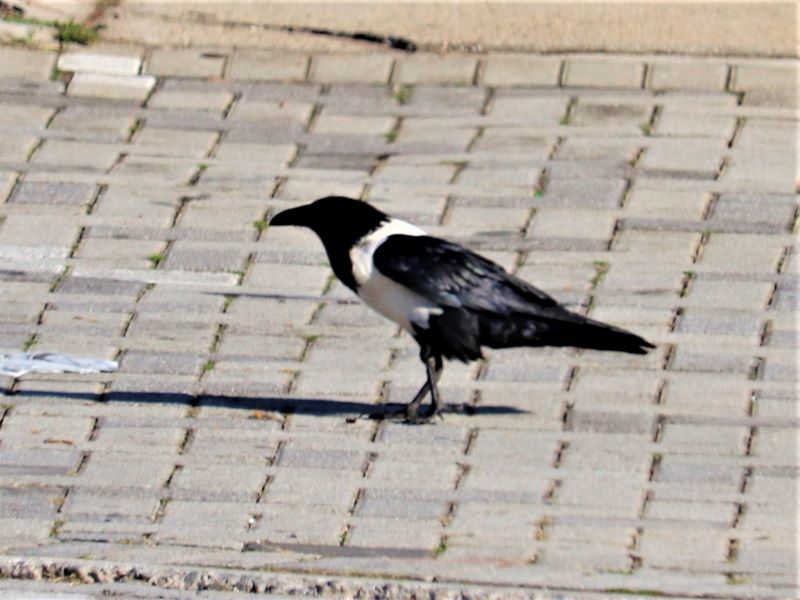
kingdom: Animalia
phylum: Chordata
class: Aves
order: Passeriformes
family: Corvidae
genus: Corvus
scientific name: Corvus albus
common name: Pied crow
